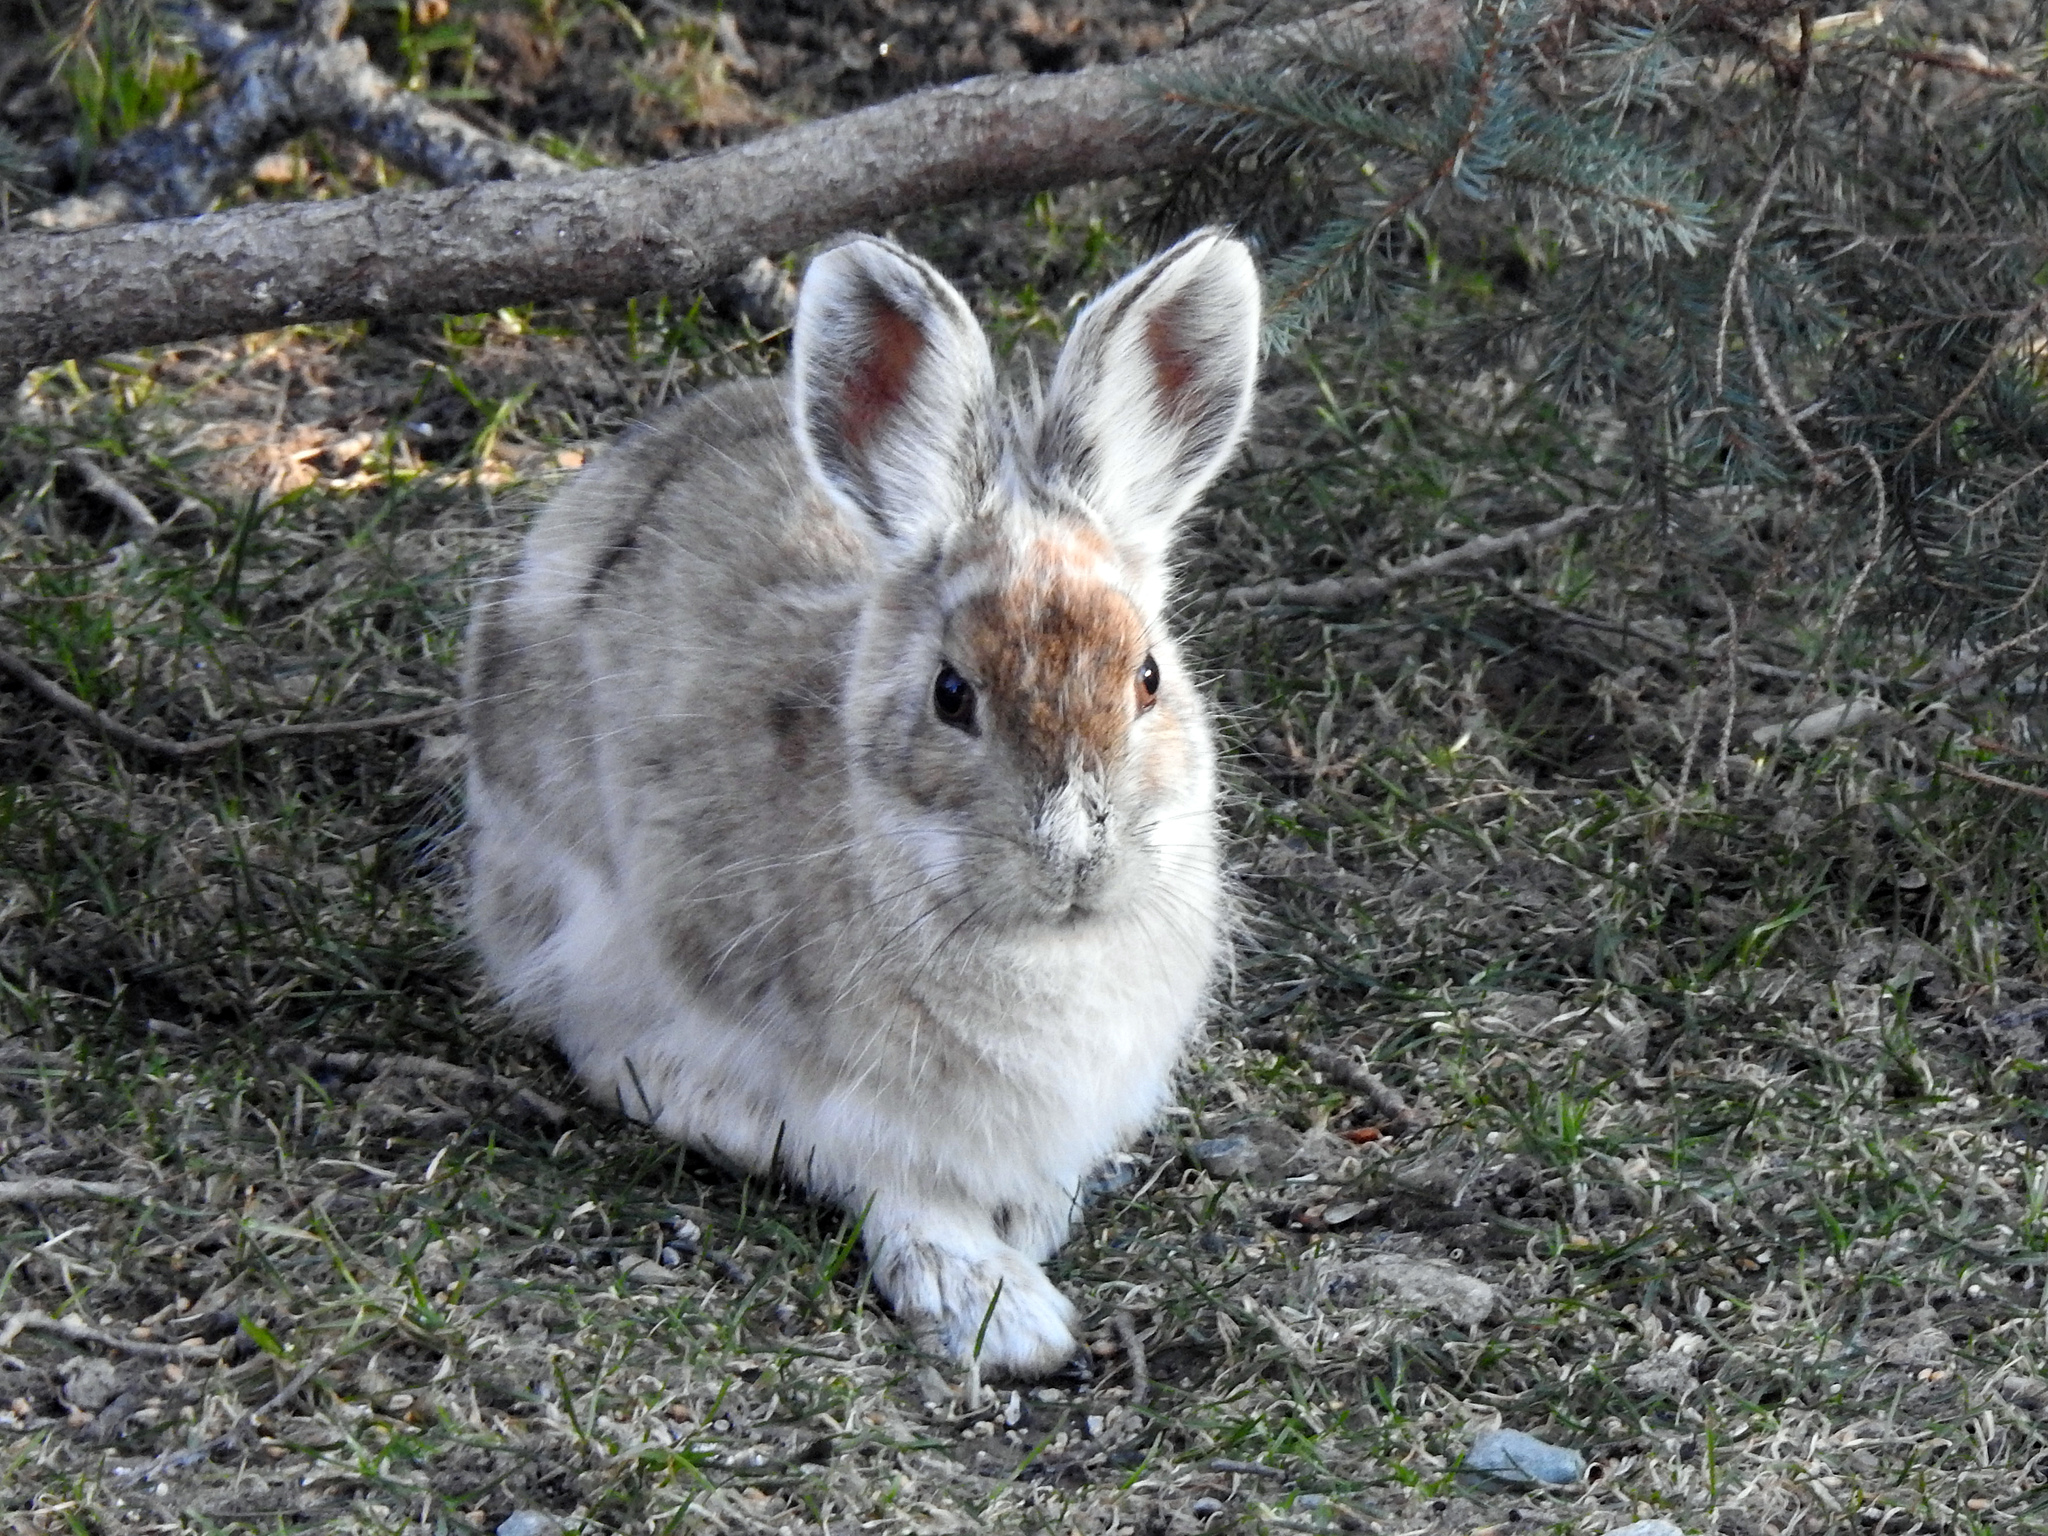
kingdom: Animalia
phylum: Chordata
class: Mammalia
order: Lagomorpha
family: Leporidae
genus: Lepus
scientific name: Lepus americanus
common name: Snowshoe hare
